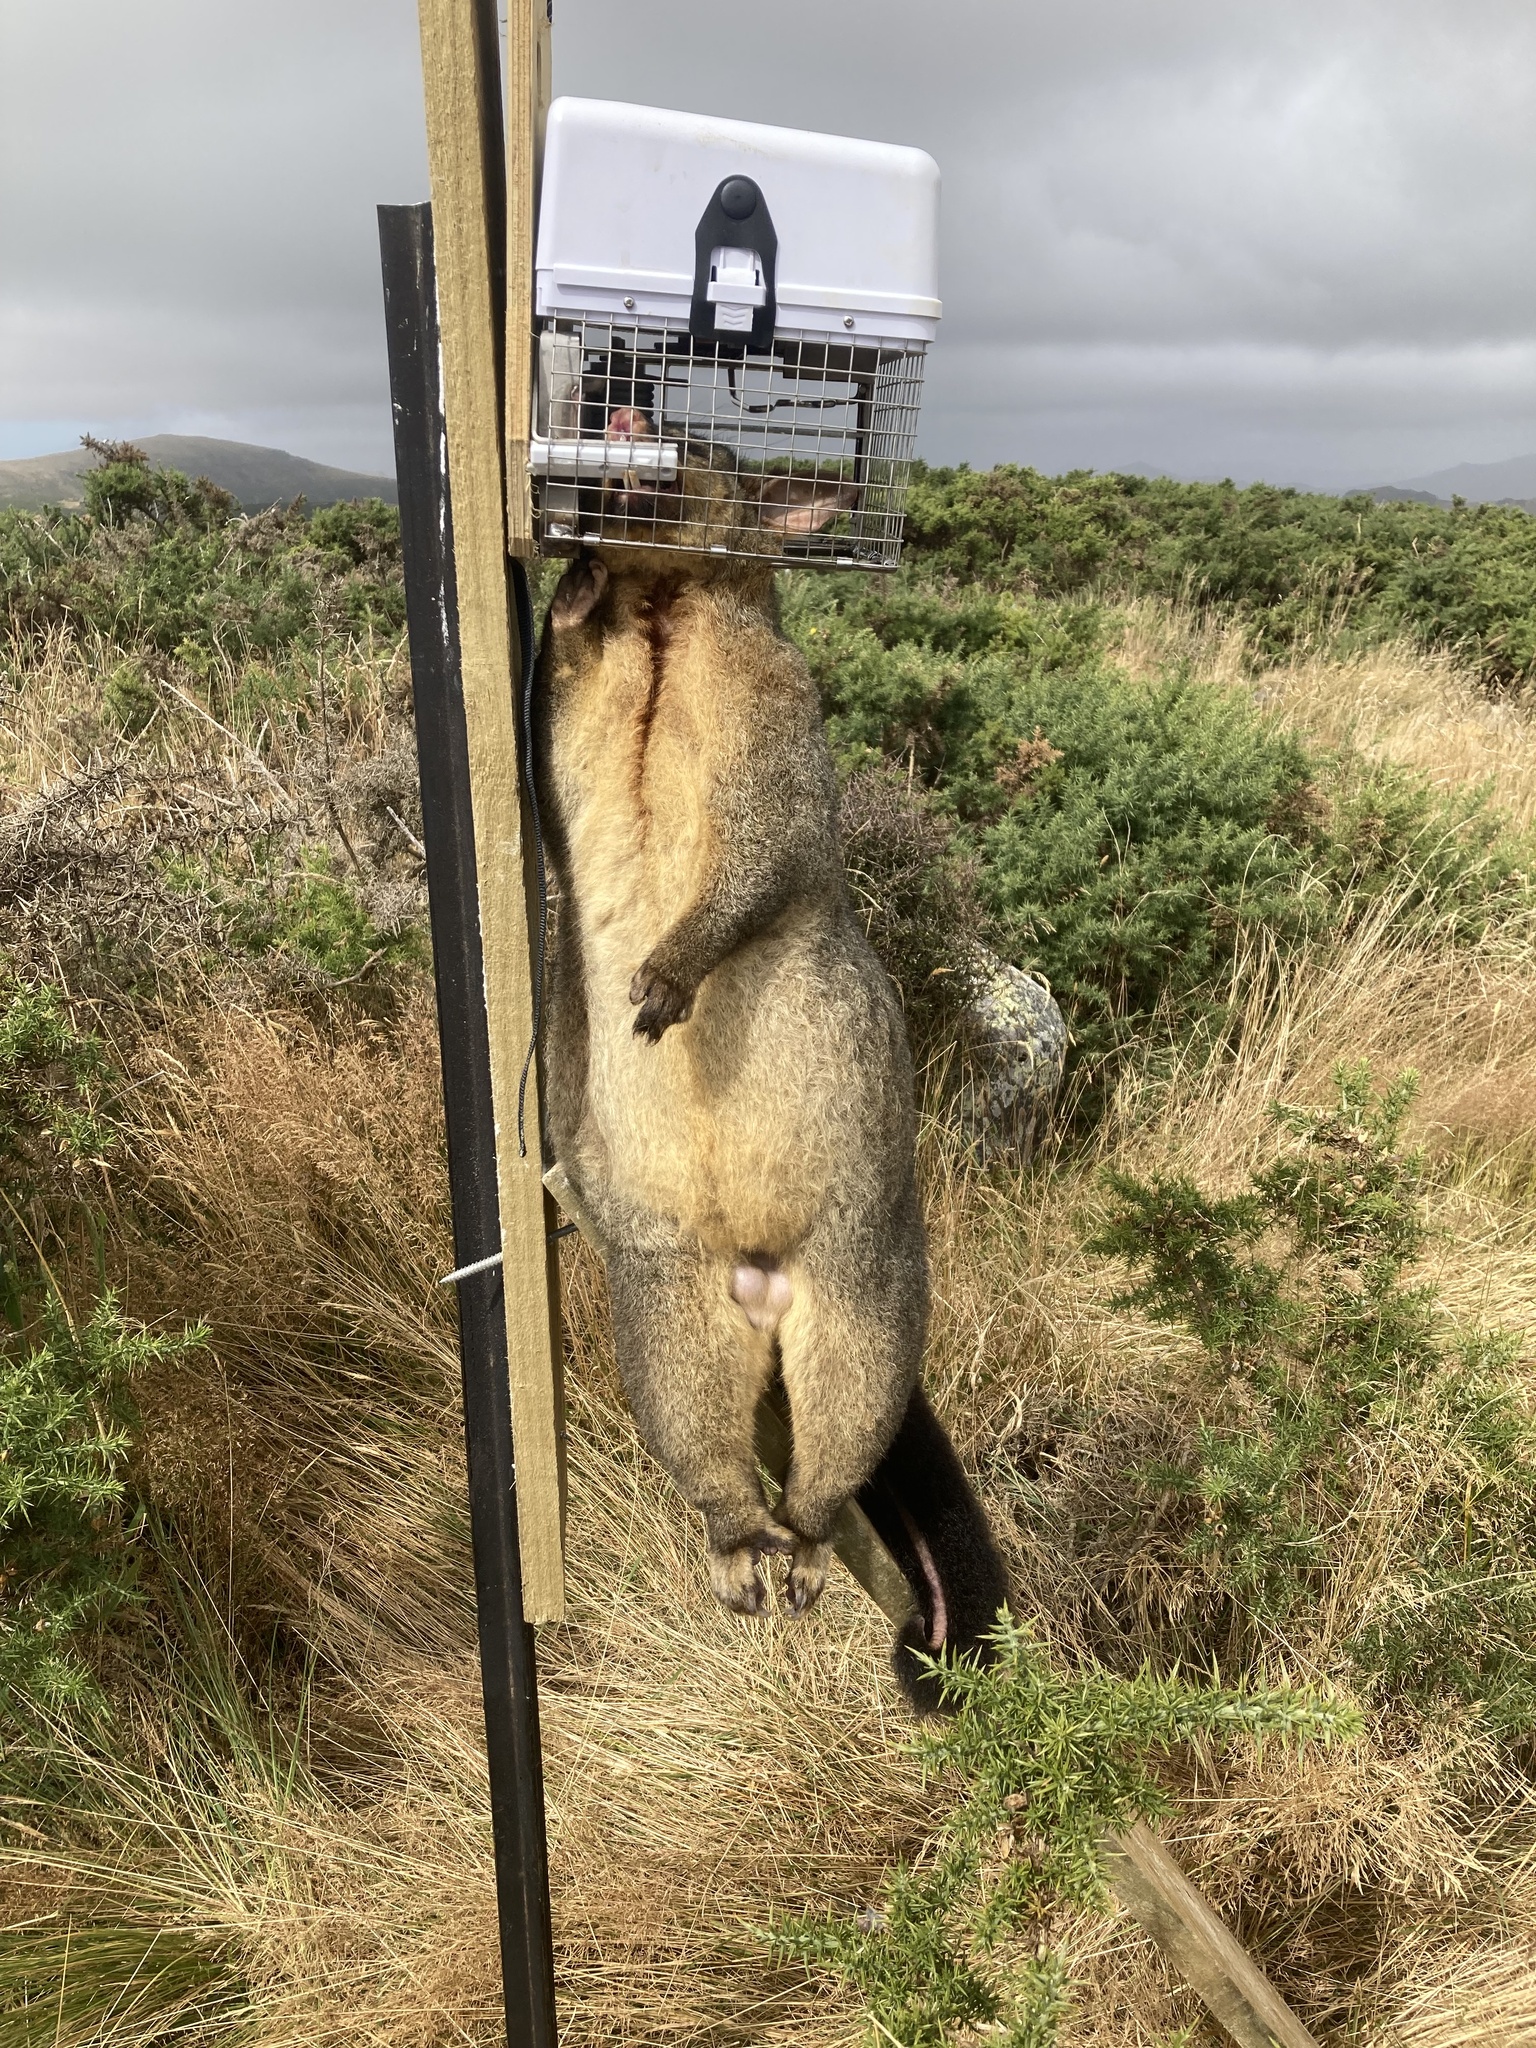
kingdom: Animalia
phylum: Chordata
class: Mammalia
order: Diprotodontia
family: Phalangeridae
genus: Trichosurus
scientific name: Trichosurus vulpecula
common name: Common brushtail
